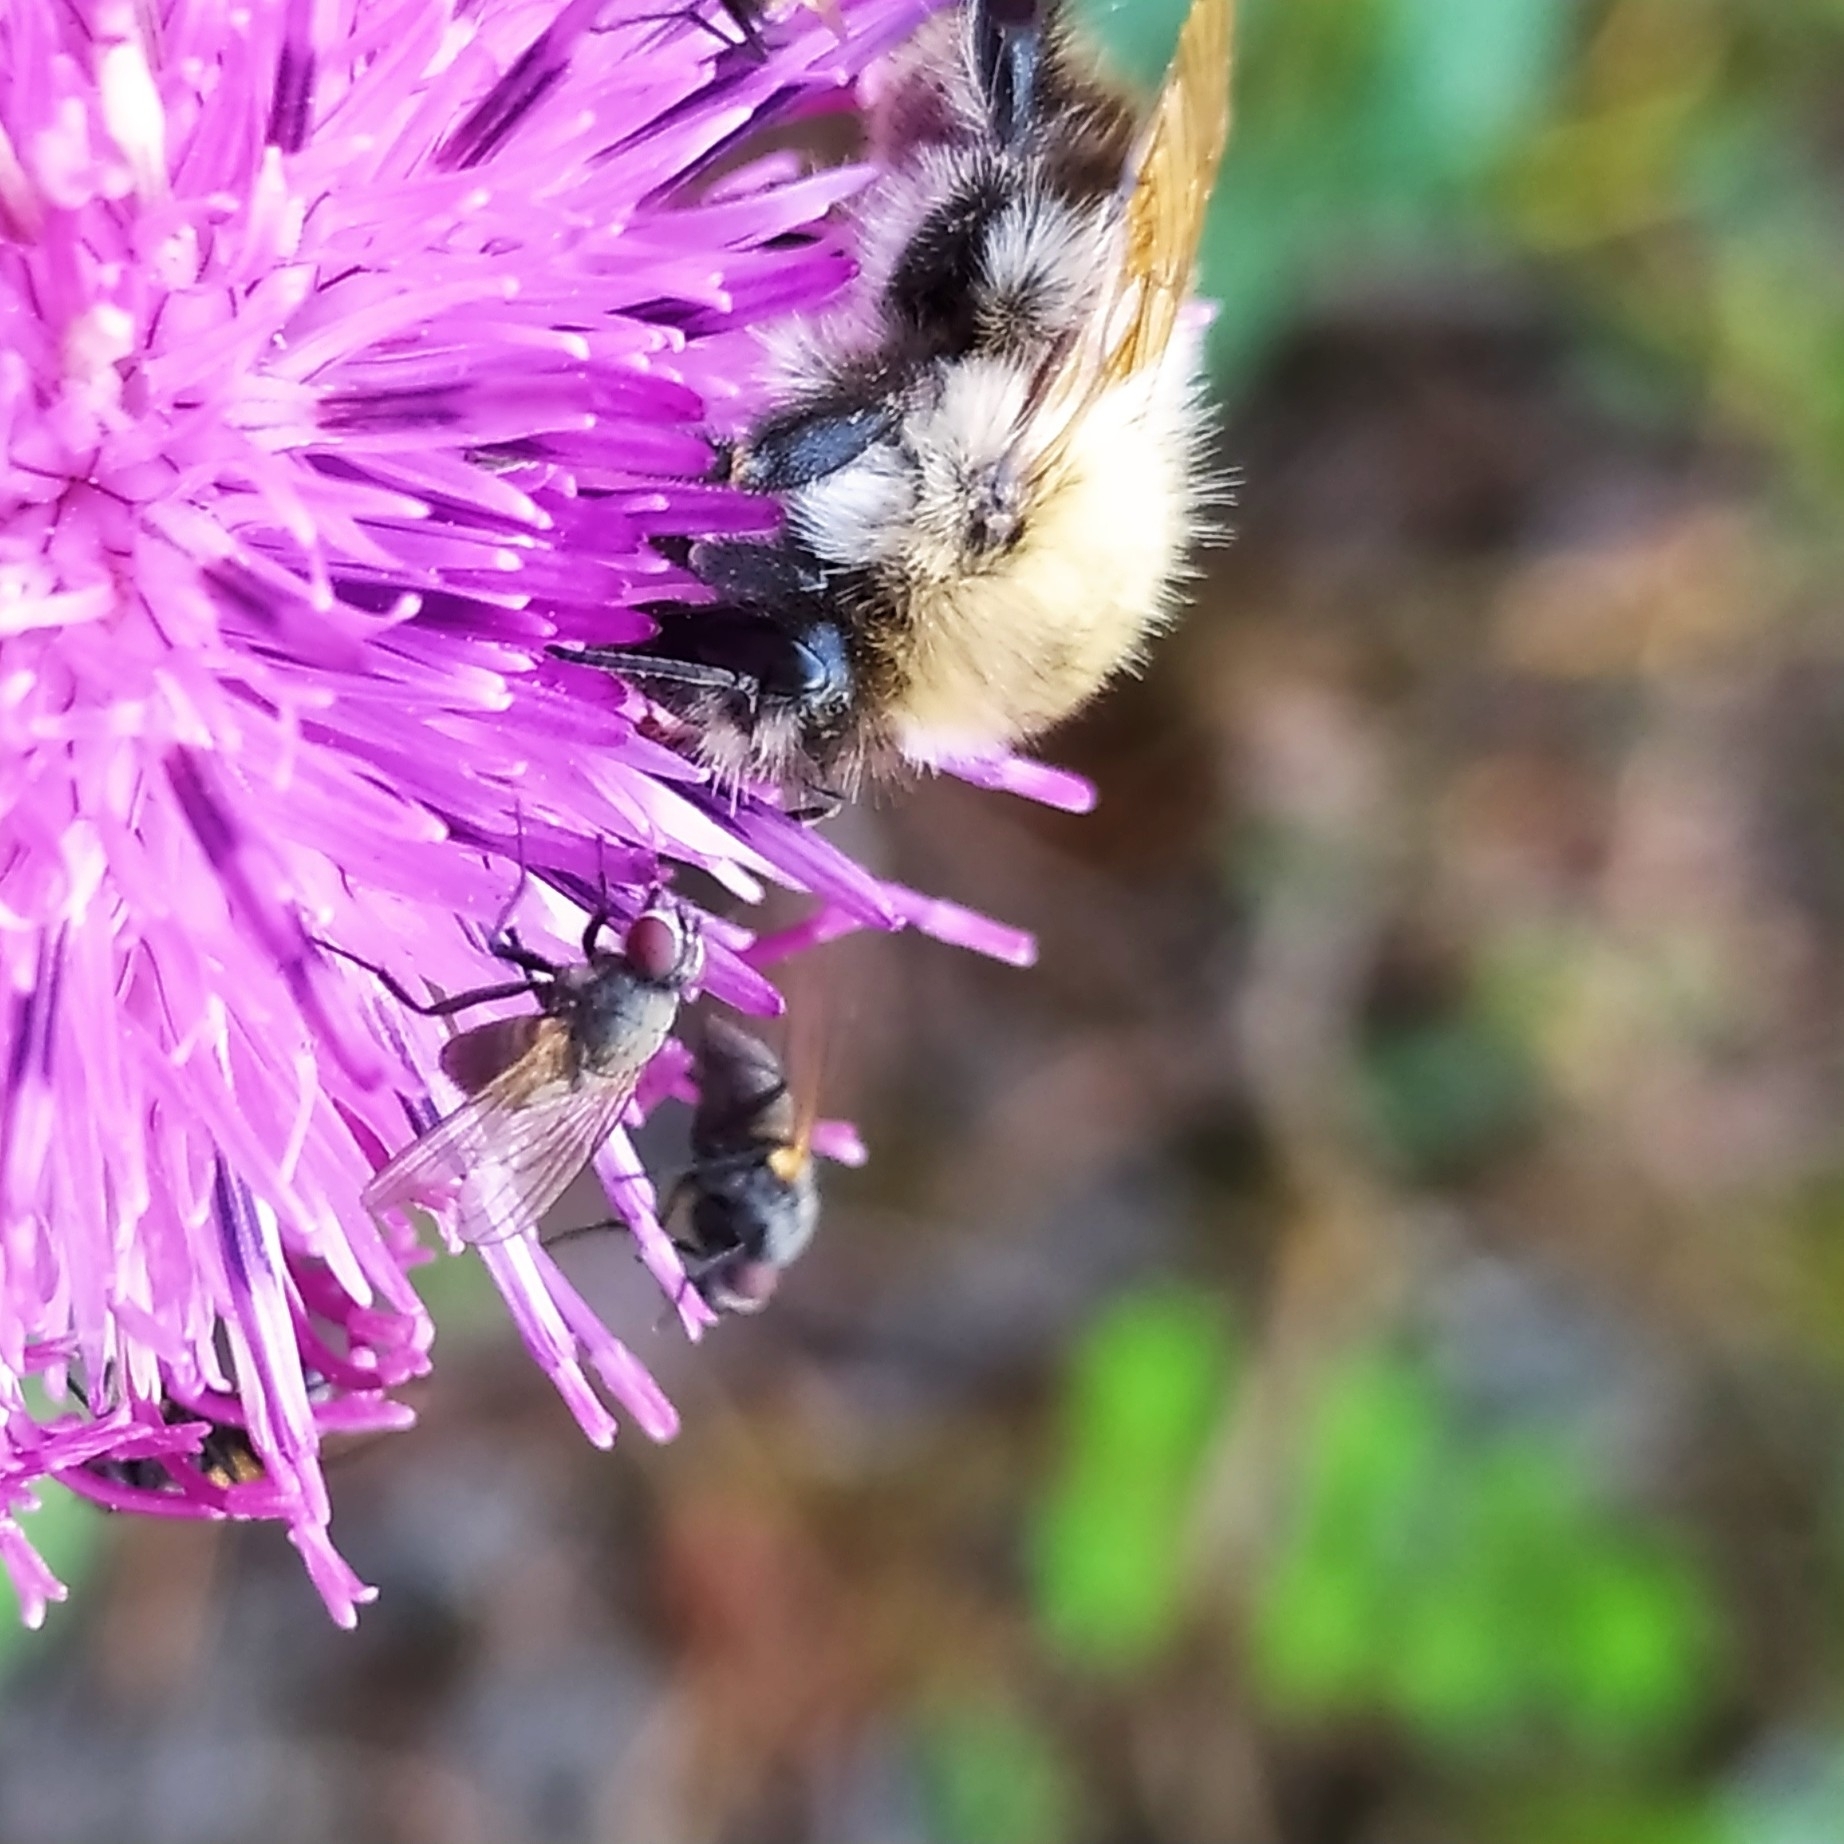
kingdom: Animalia
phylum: Arthropoda
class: Insecta
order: Hymenoptera
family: Apidae
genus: Bombus
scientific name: Bombus pascuorum
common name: Common carder bee
